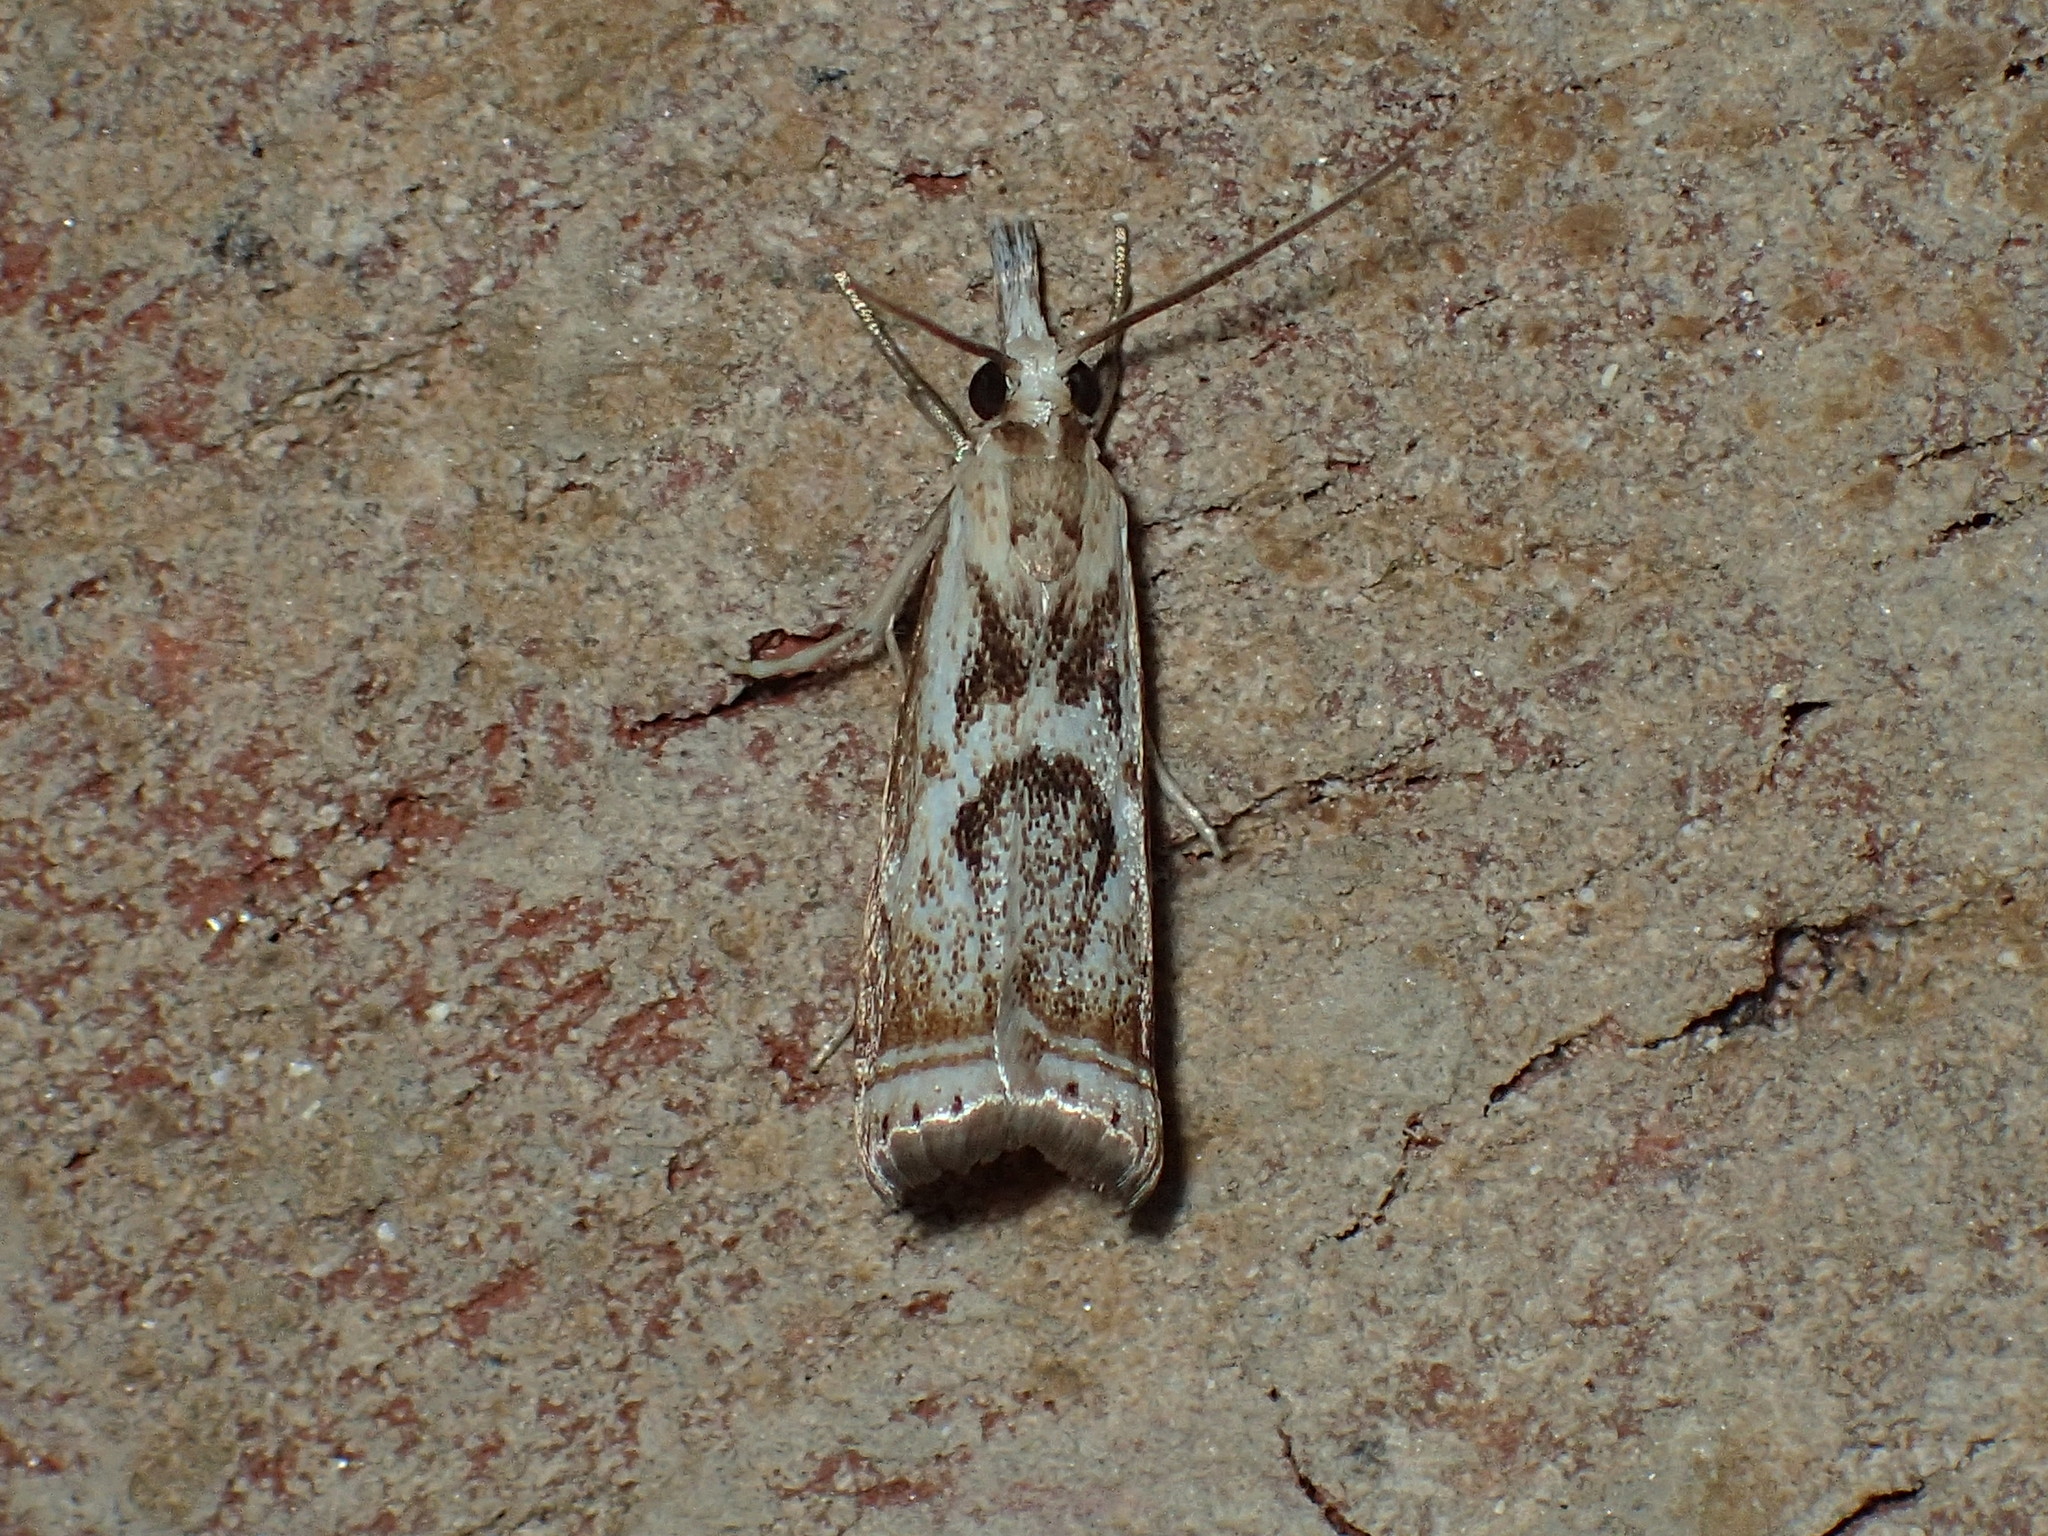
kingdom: Animalia
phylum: Arthropoda
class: Insecta
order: Lepidoptera
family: Crambidae
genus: Microcrambus
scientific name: Microcrambus elegans
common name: Elegant grass-veneer
